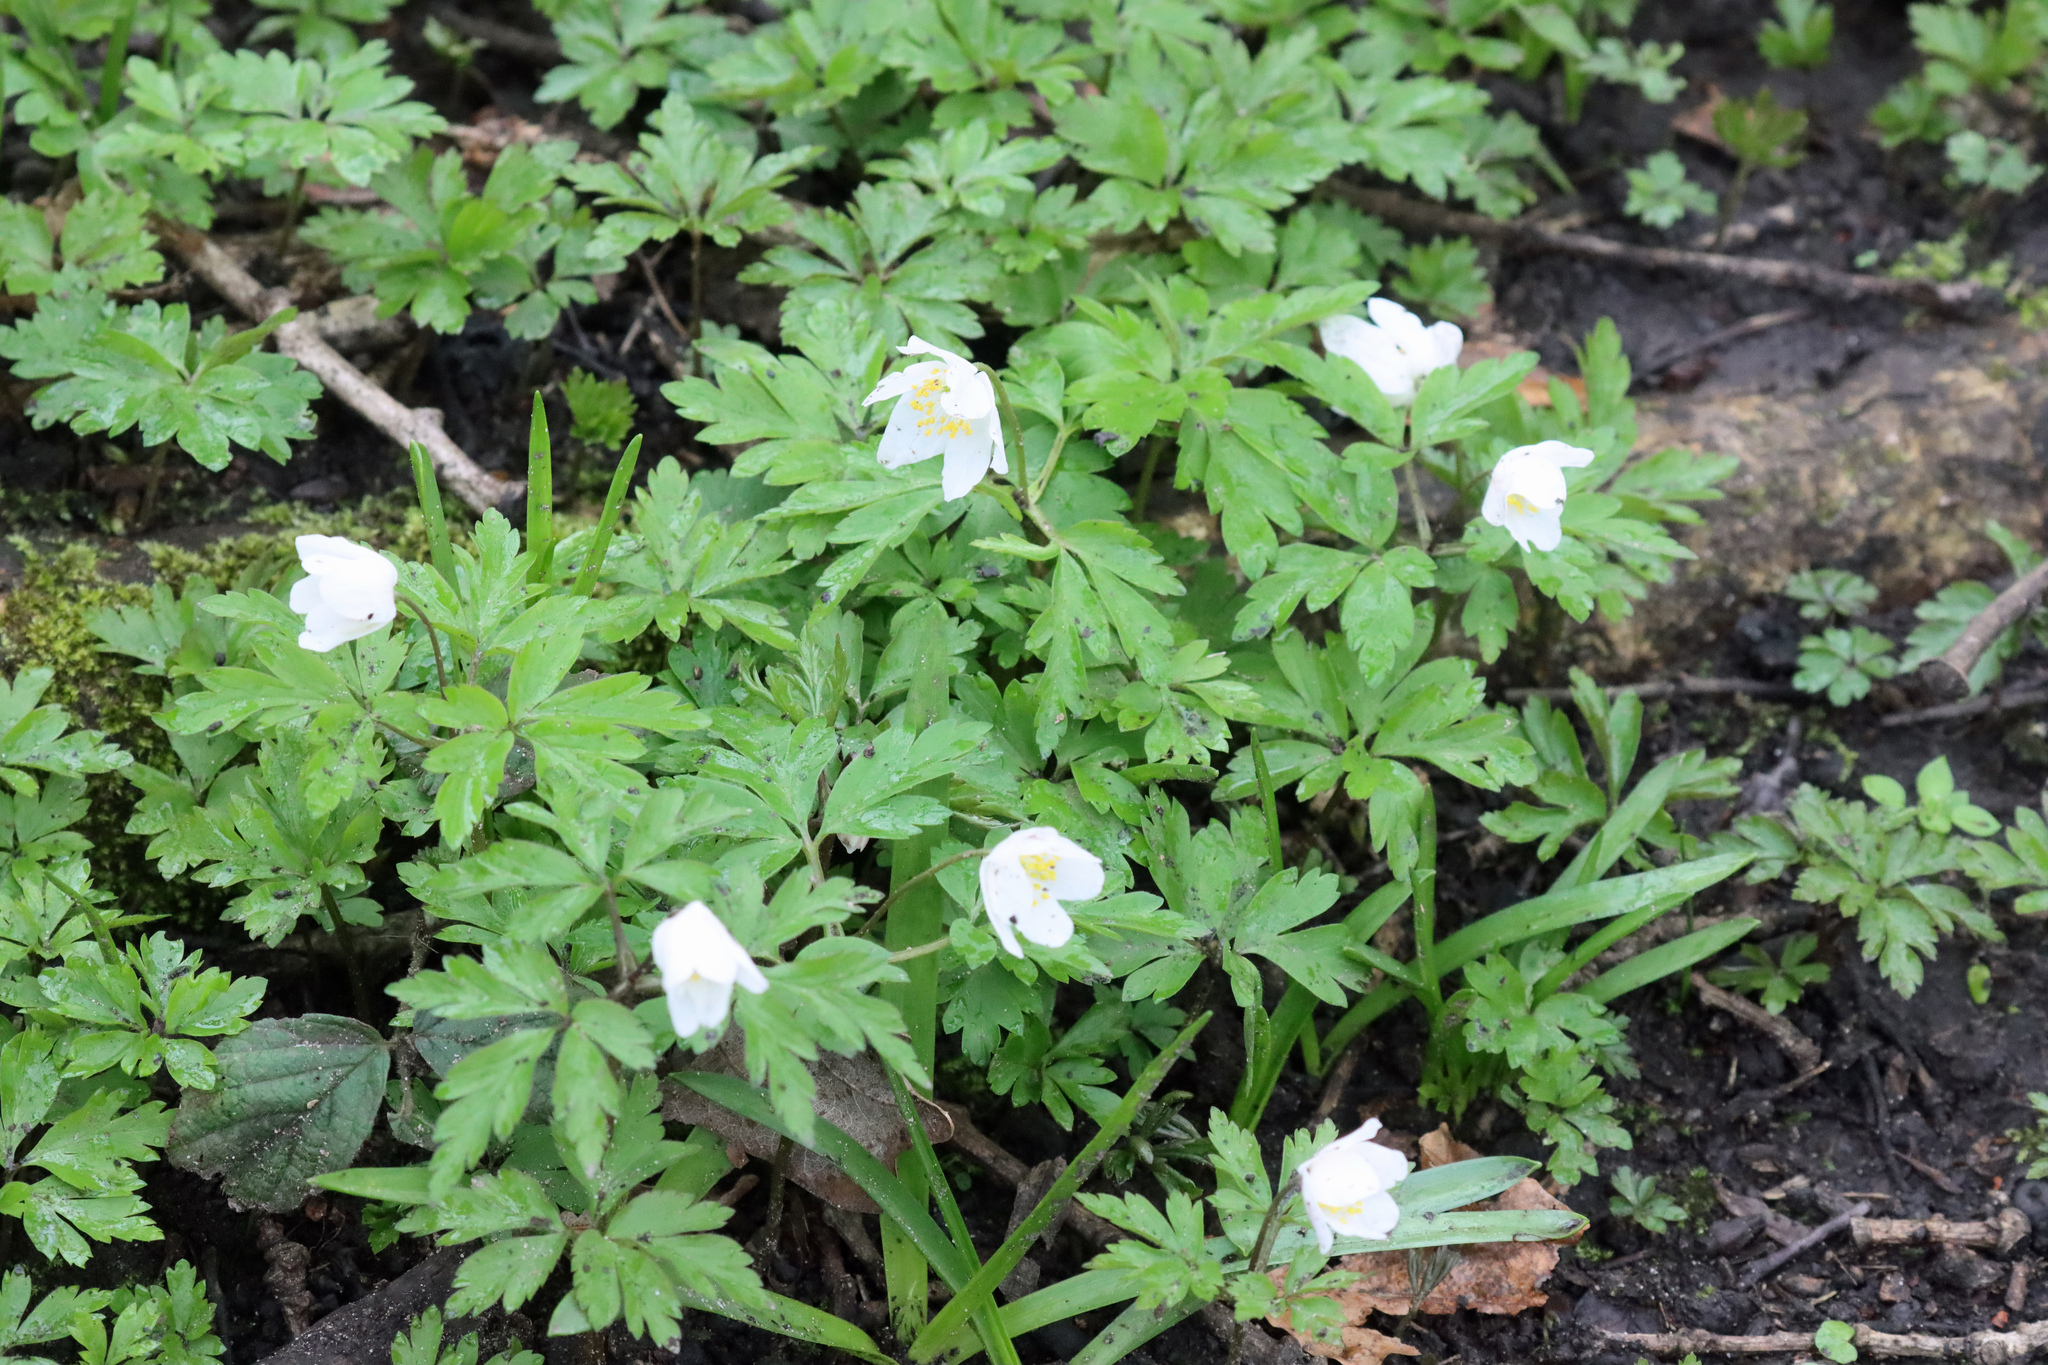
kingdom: Plantae
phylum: Tracheophyta
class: Magnoliopsida
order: Ranunculales
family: Ranunculaceae
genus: Anemone
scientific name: Anemone nemorosa
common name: Wood anemone
